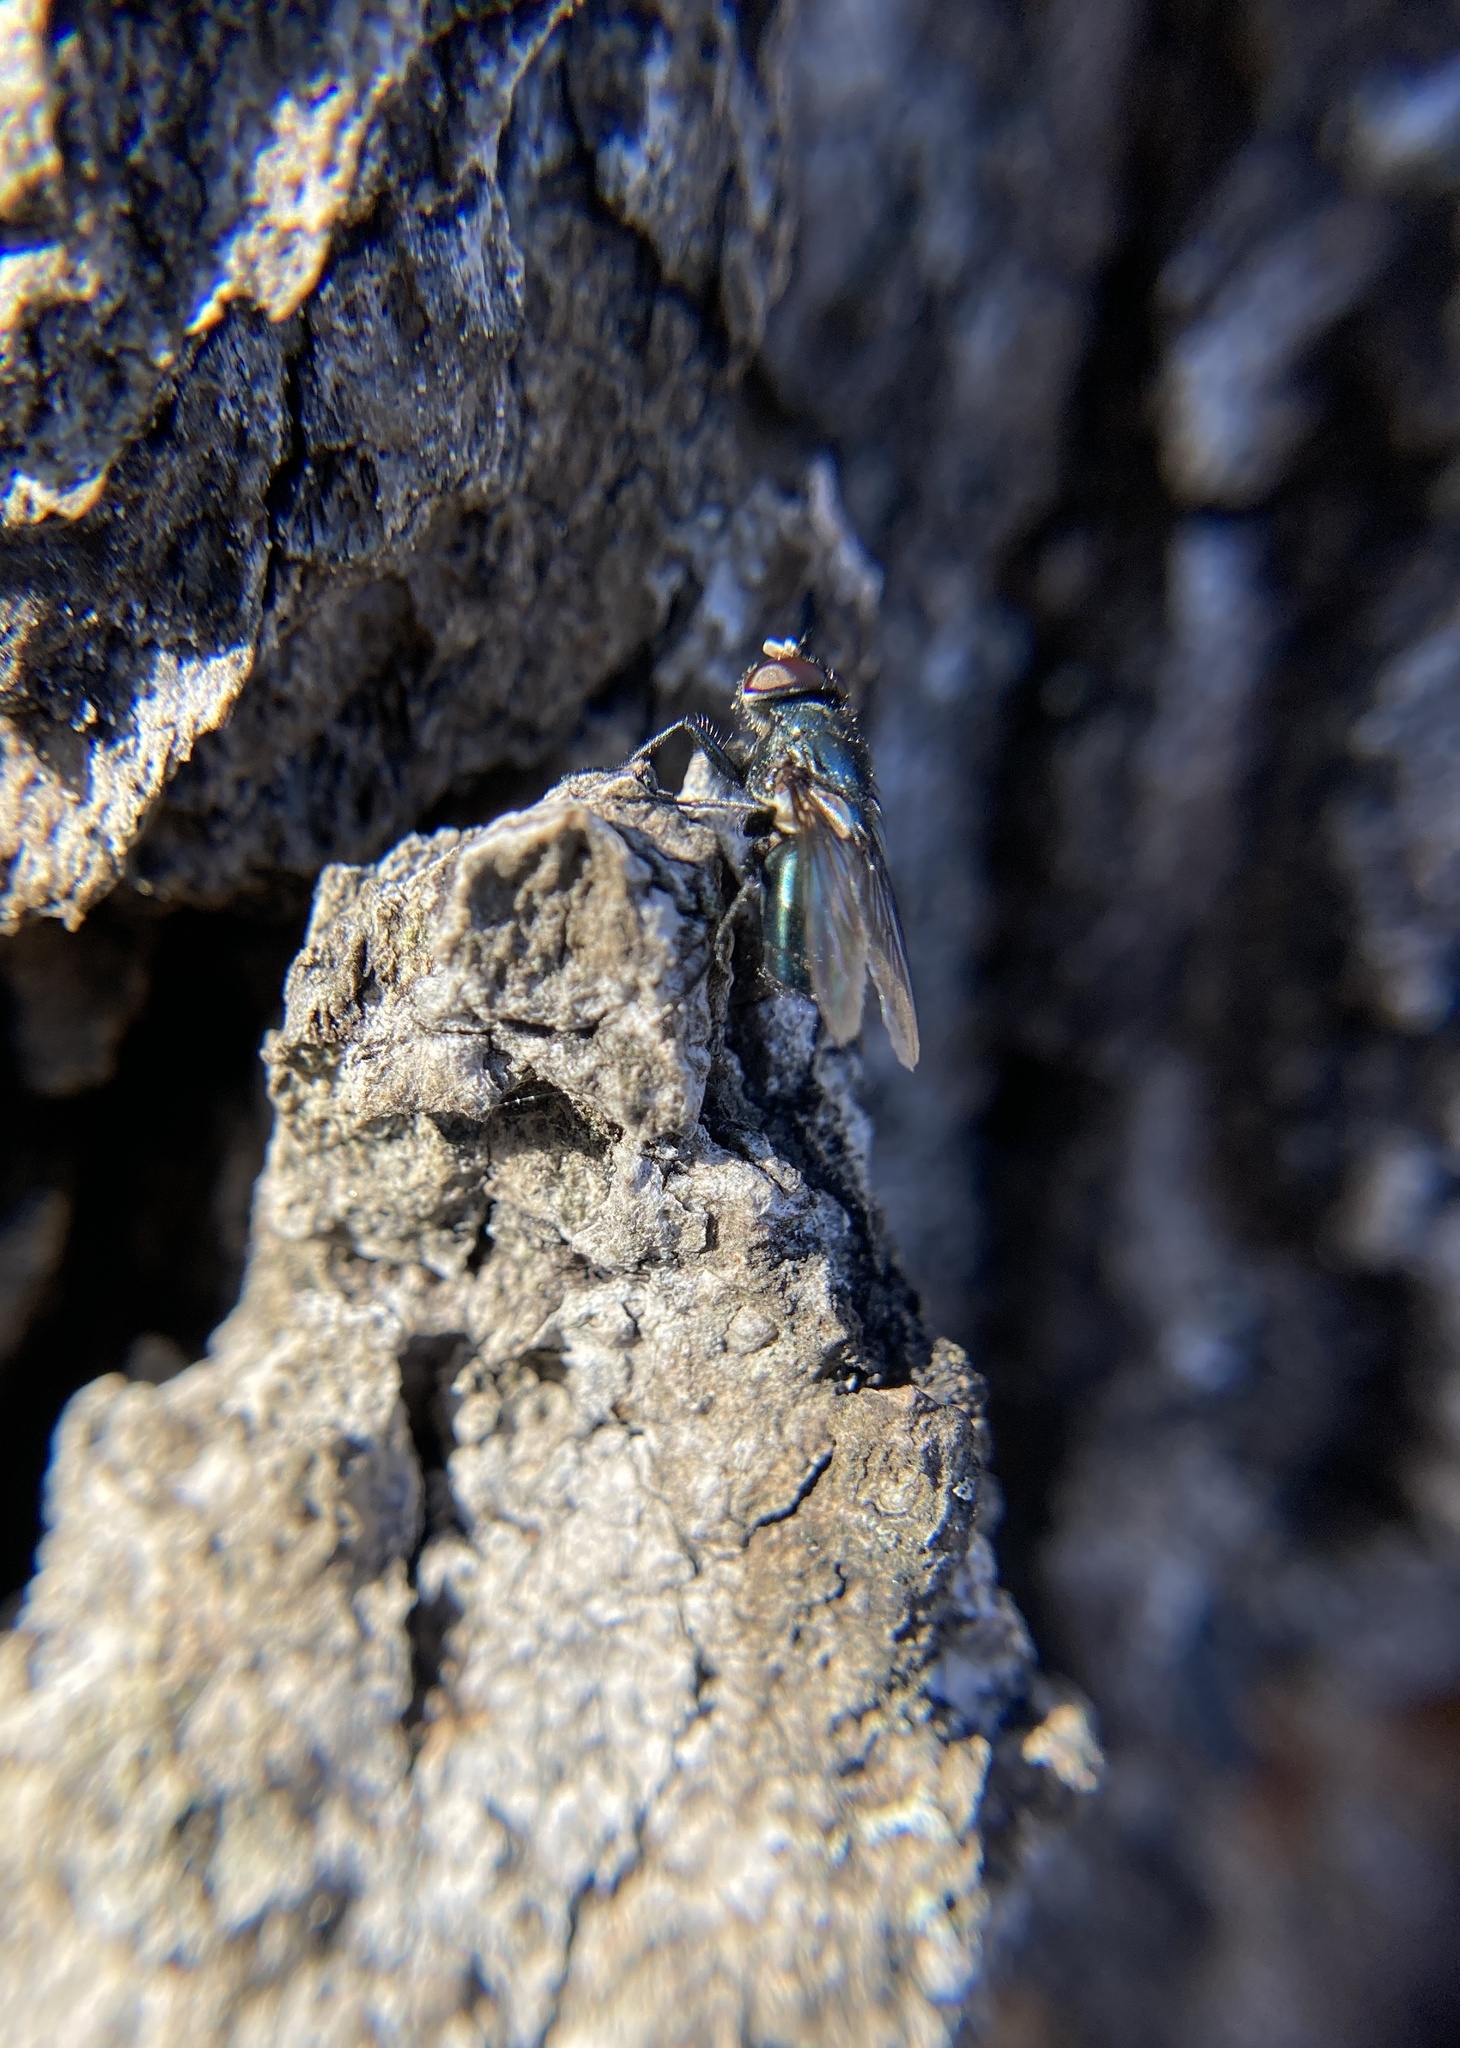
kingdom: Animalia
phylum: Arthropoda
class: Insecta
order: Diptera
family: Calliphoridae
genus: Phormia
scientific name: Phormia regina
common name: Black blow fly
